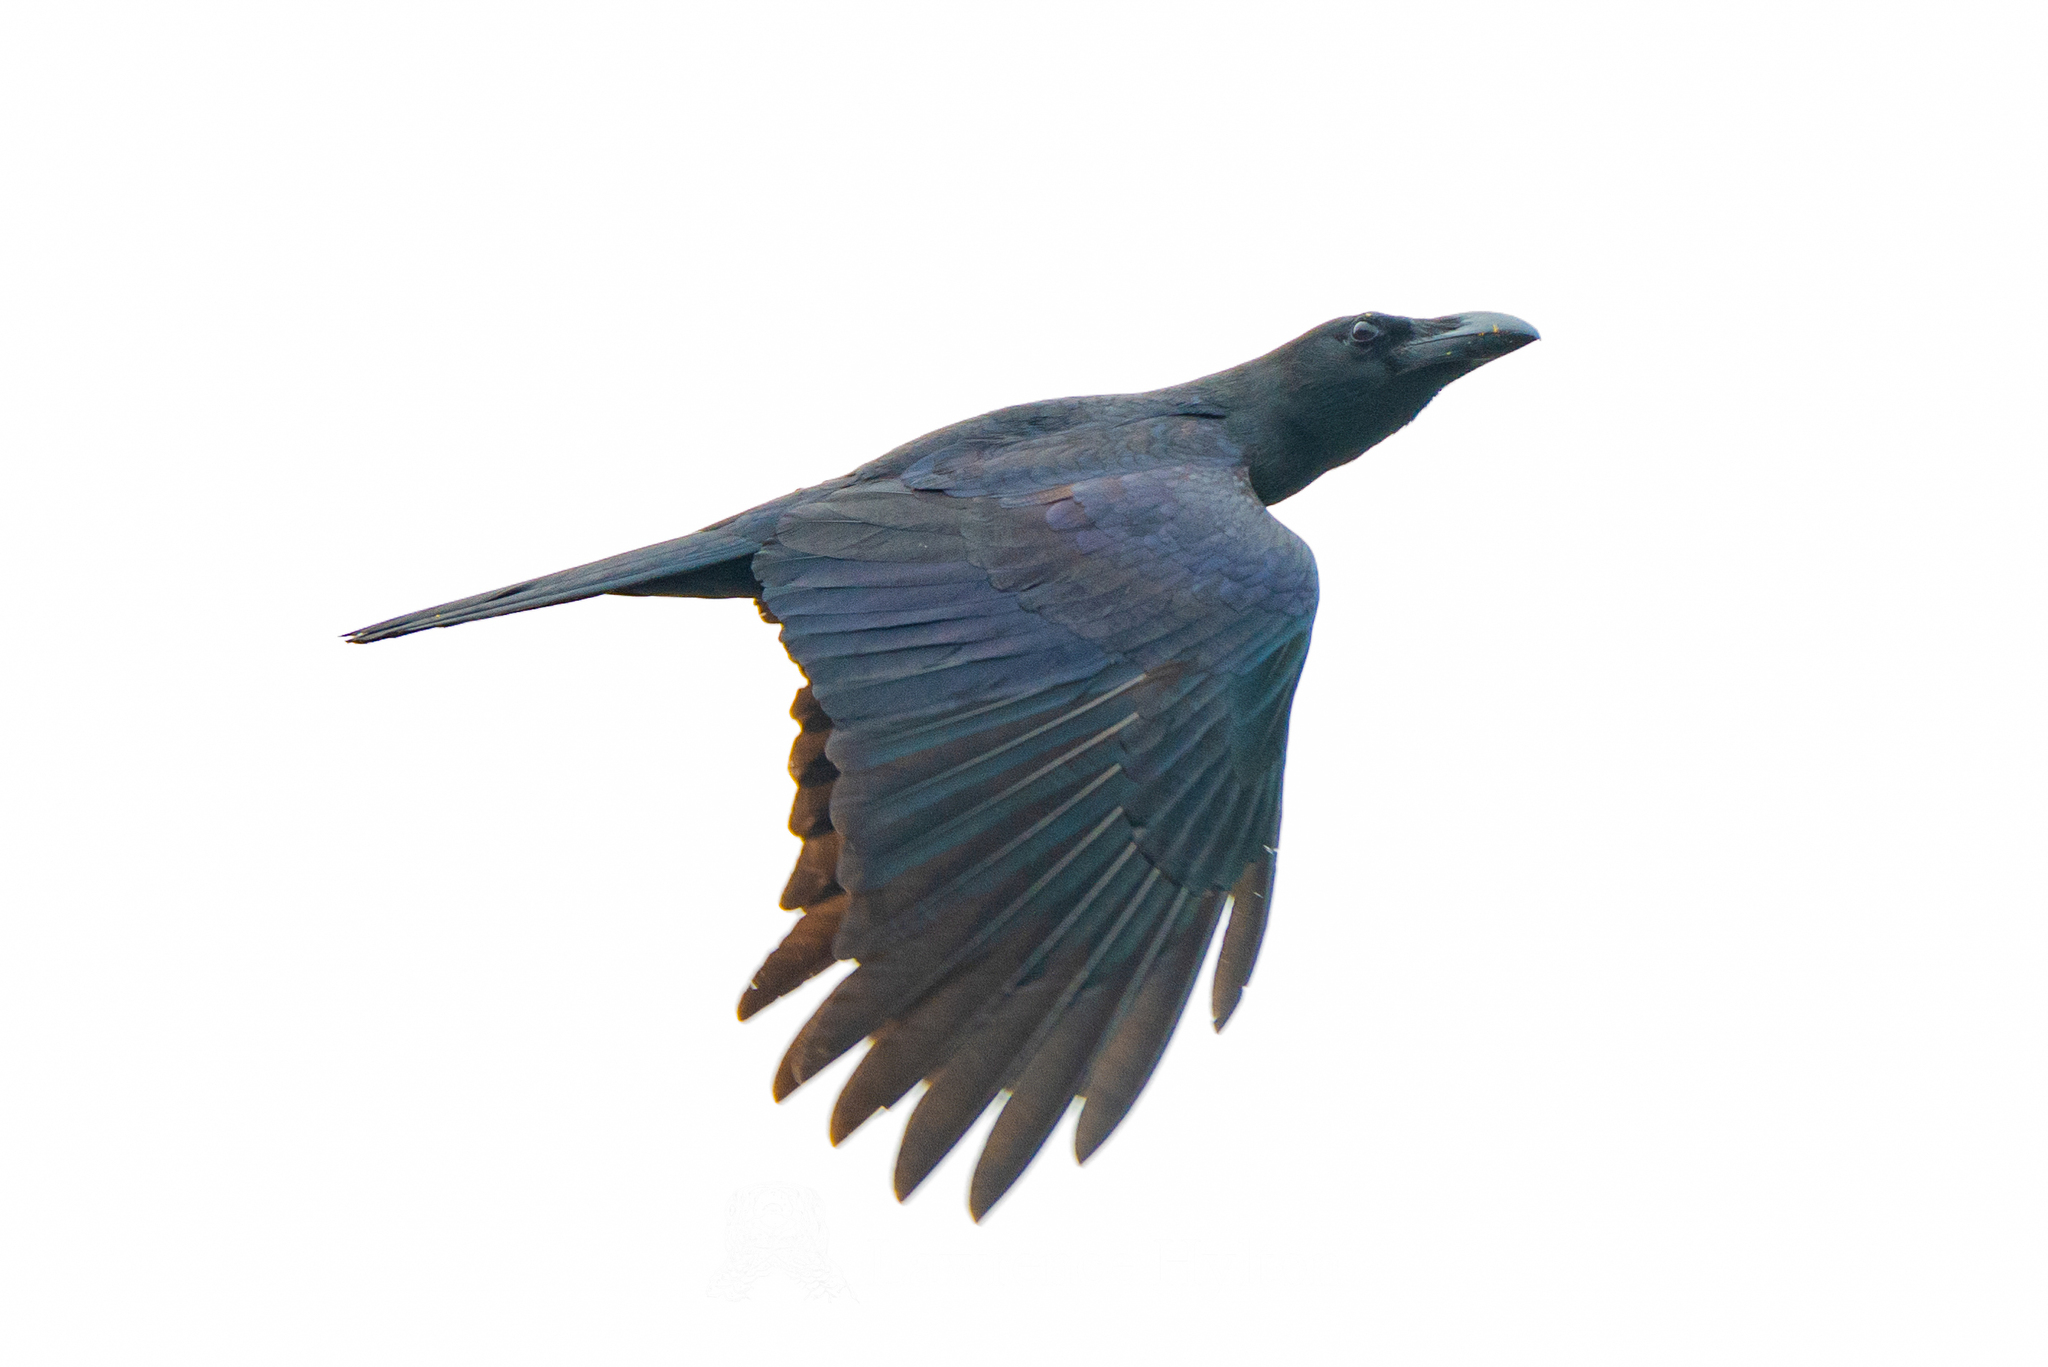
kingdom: Animalia
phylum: Chordata
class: Aves
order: Passeriformes
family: Corvidae
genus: Corvus
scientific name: Corvus macrorhynchos
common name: Large-billed crow
